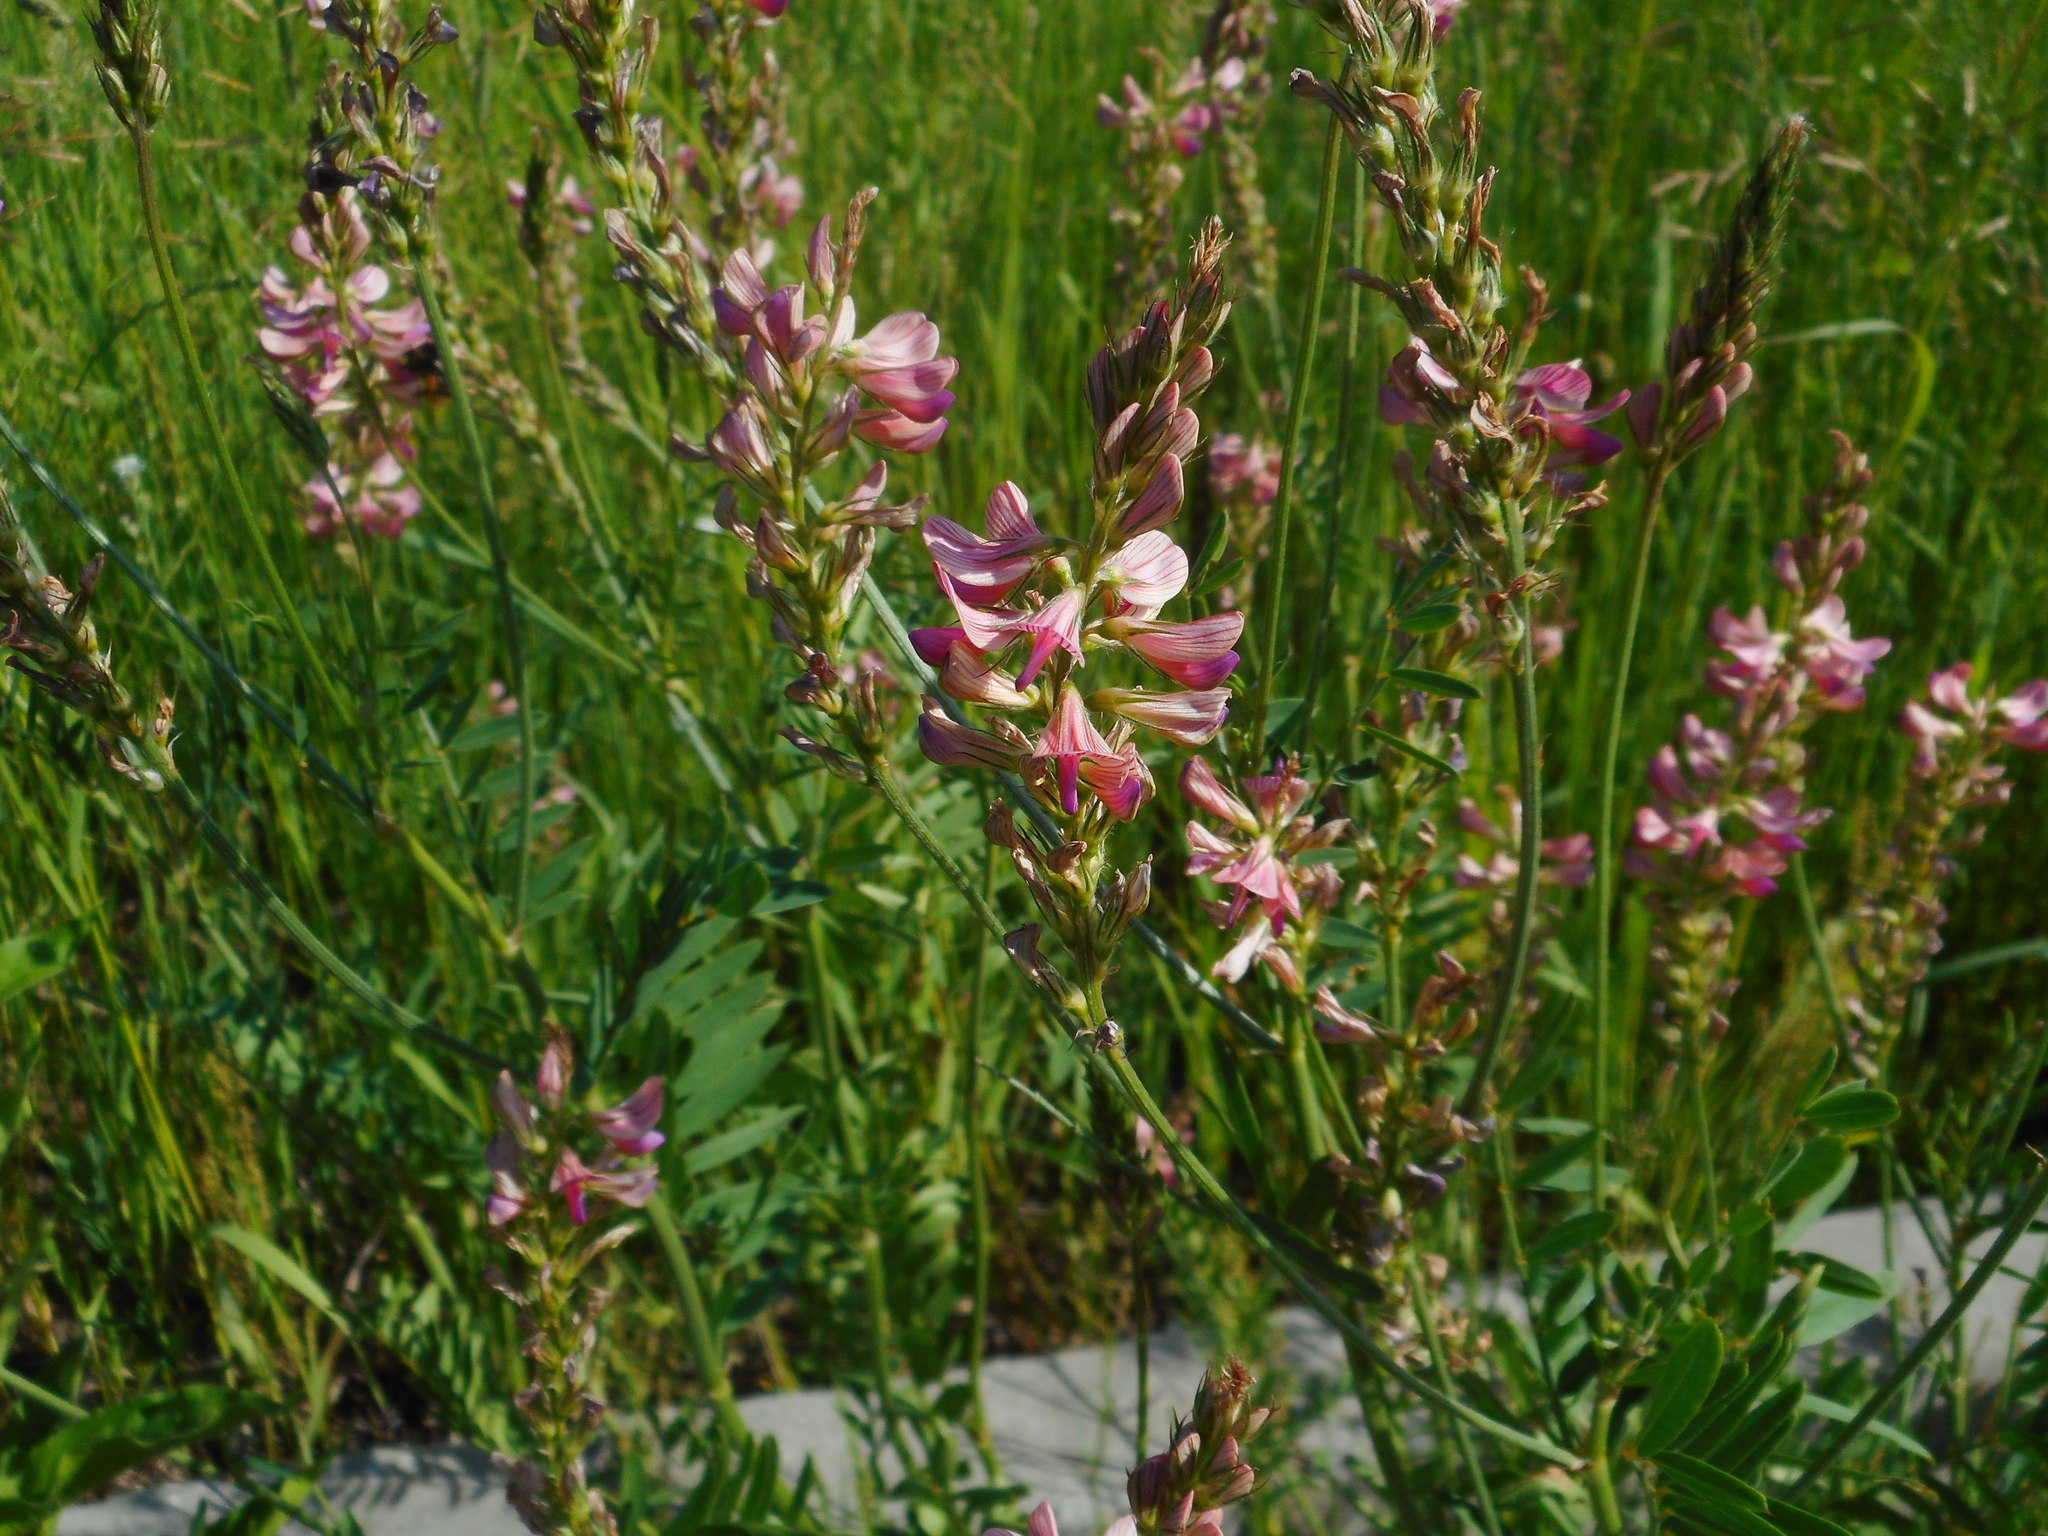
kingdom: Plantae
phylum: Tracheophyta
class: Magnoliopsida
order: Fabales
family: Fabaceae
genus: Onobrychis
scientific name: Onobrychis viciifolia
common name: Sainfoin
